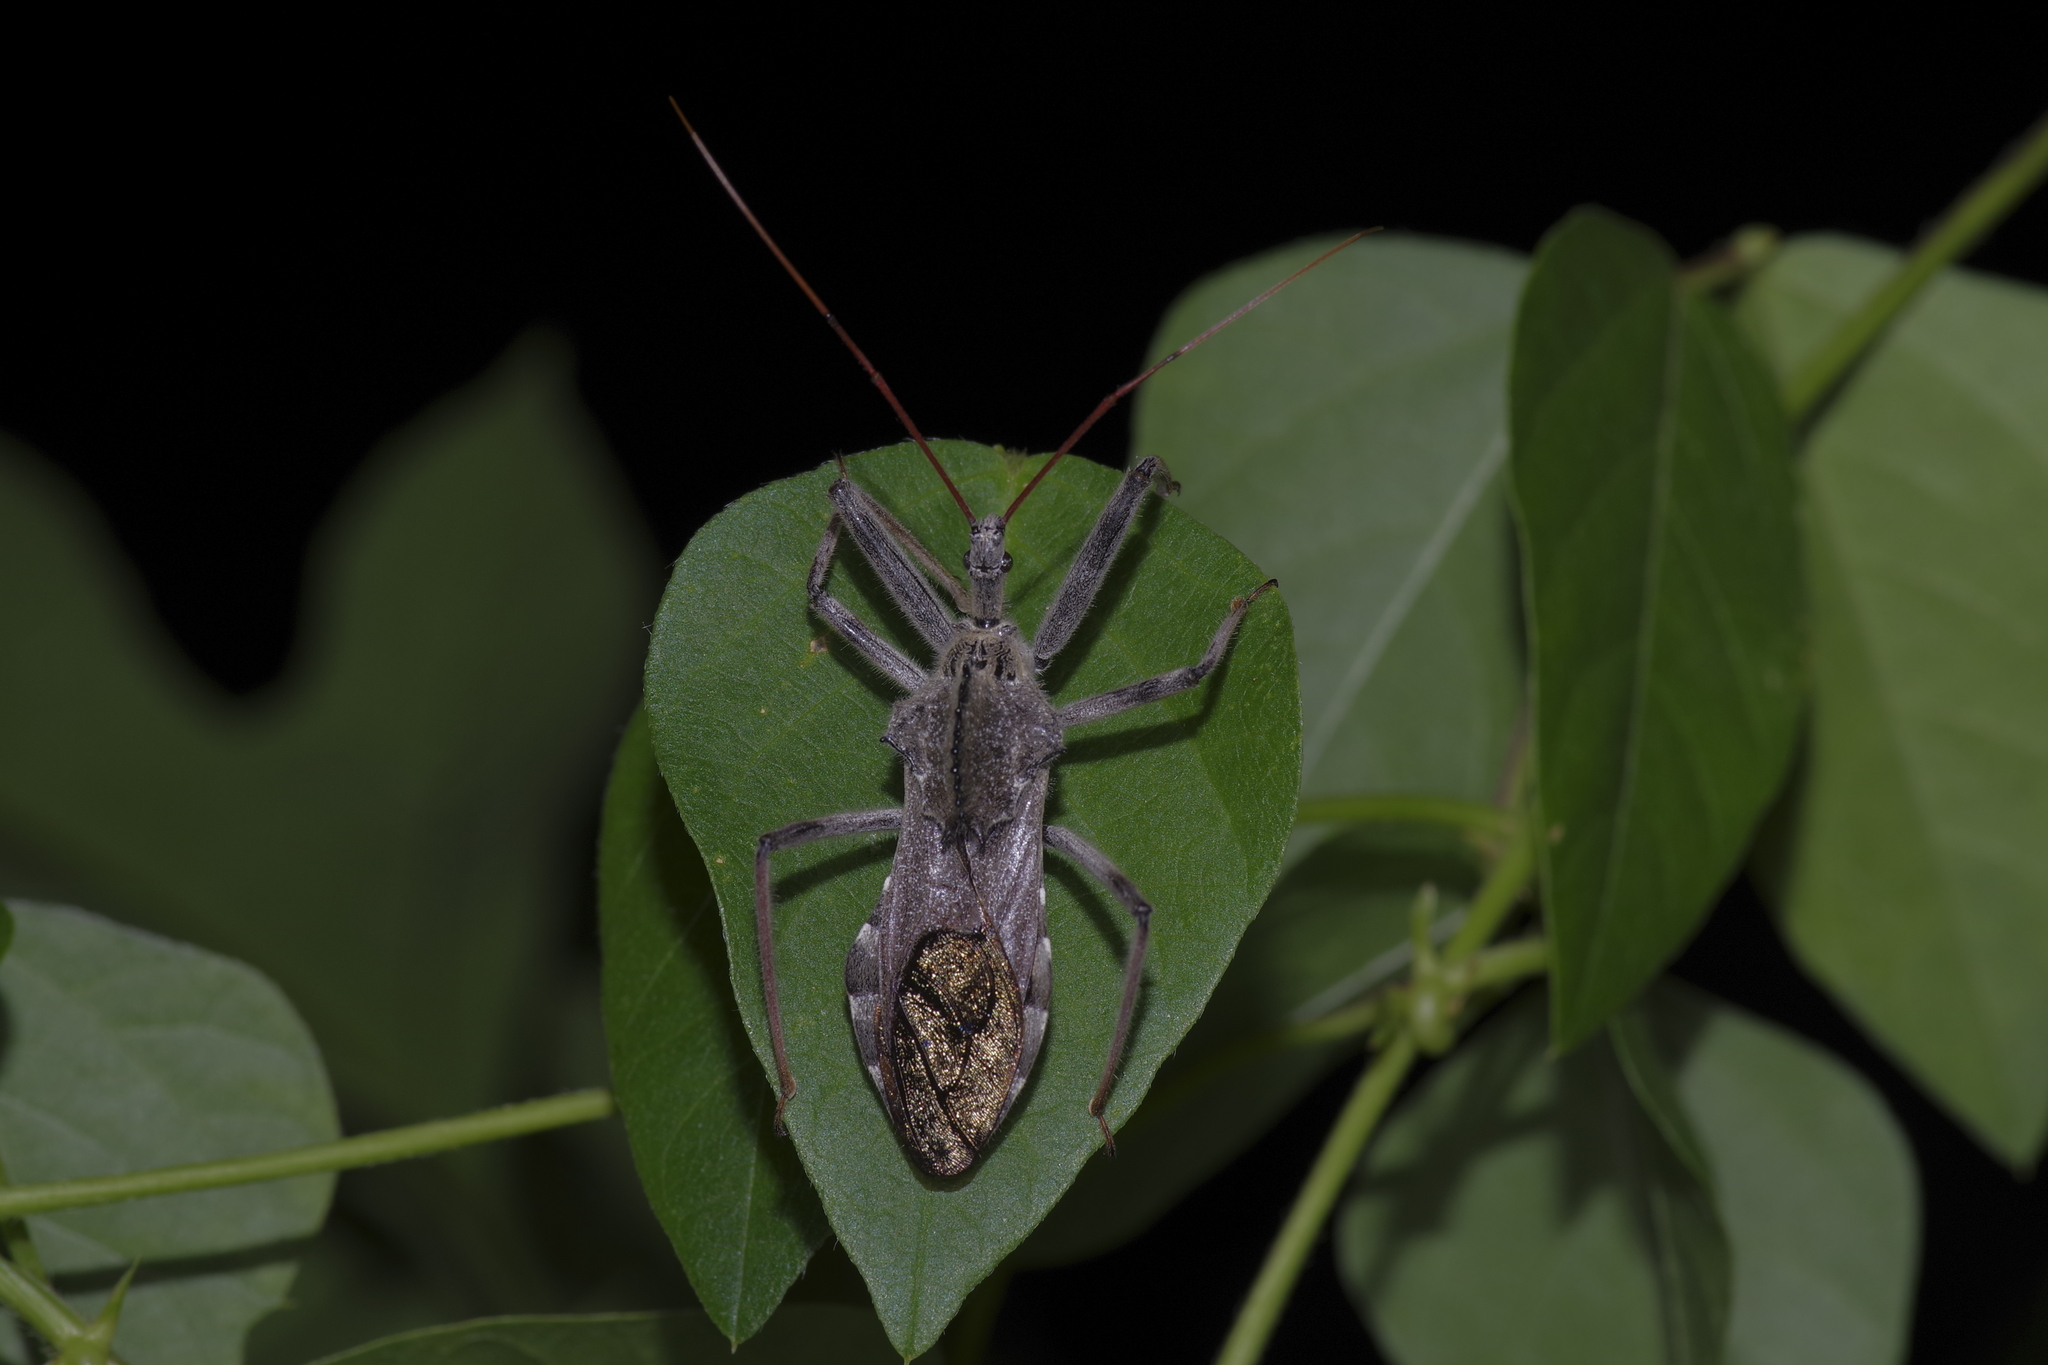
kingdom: Animalia
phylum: Arthropoda
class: Insecta
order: Hemiptera
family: Reduviidae
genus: Arilus
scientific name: Arilus cristatus
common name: North american wheel bug
